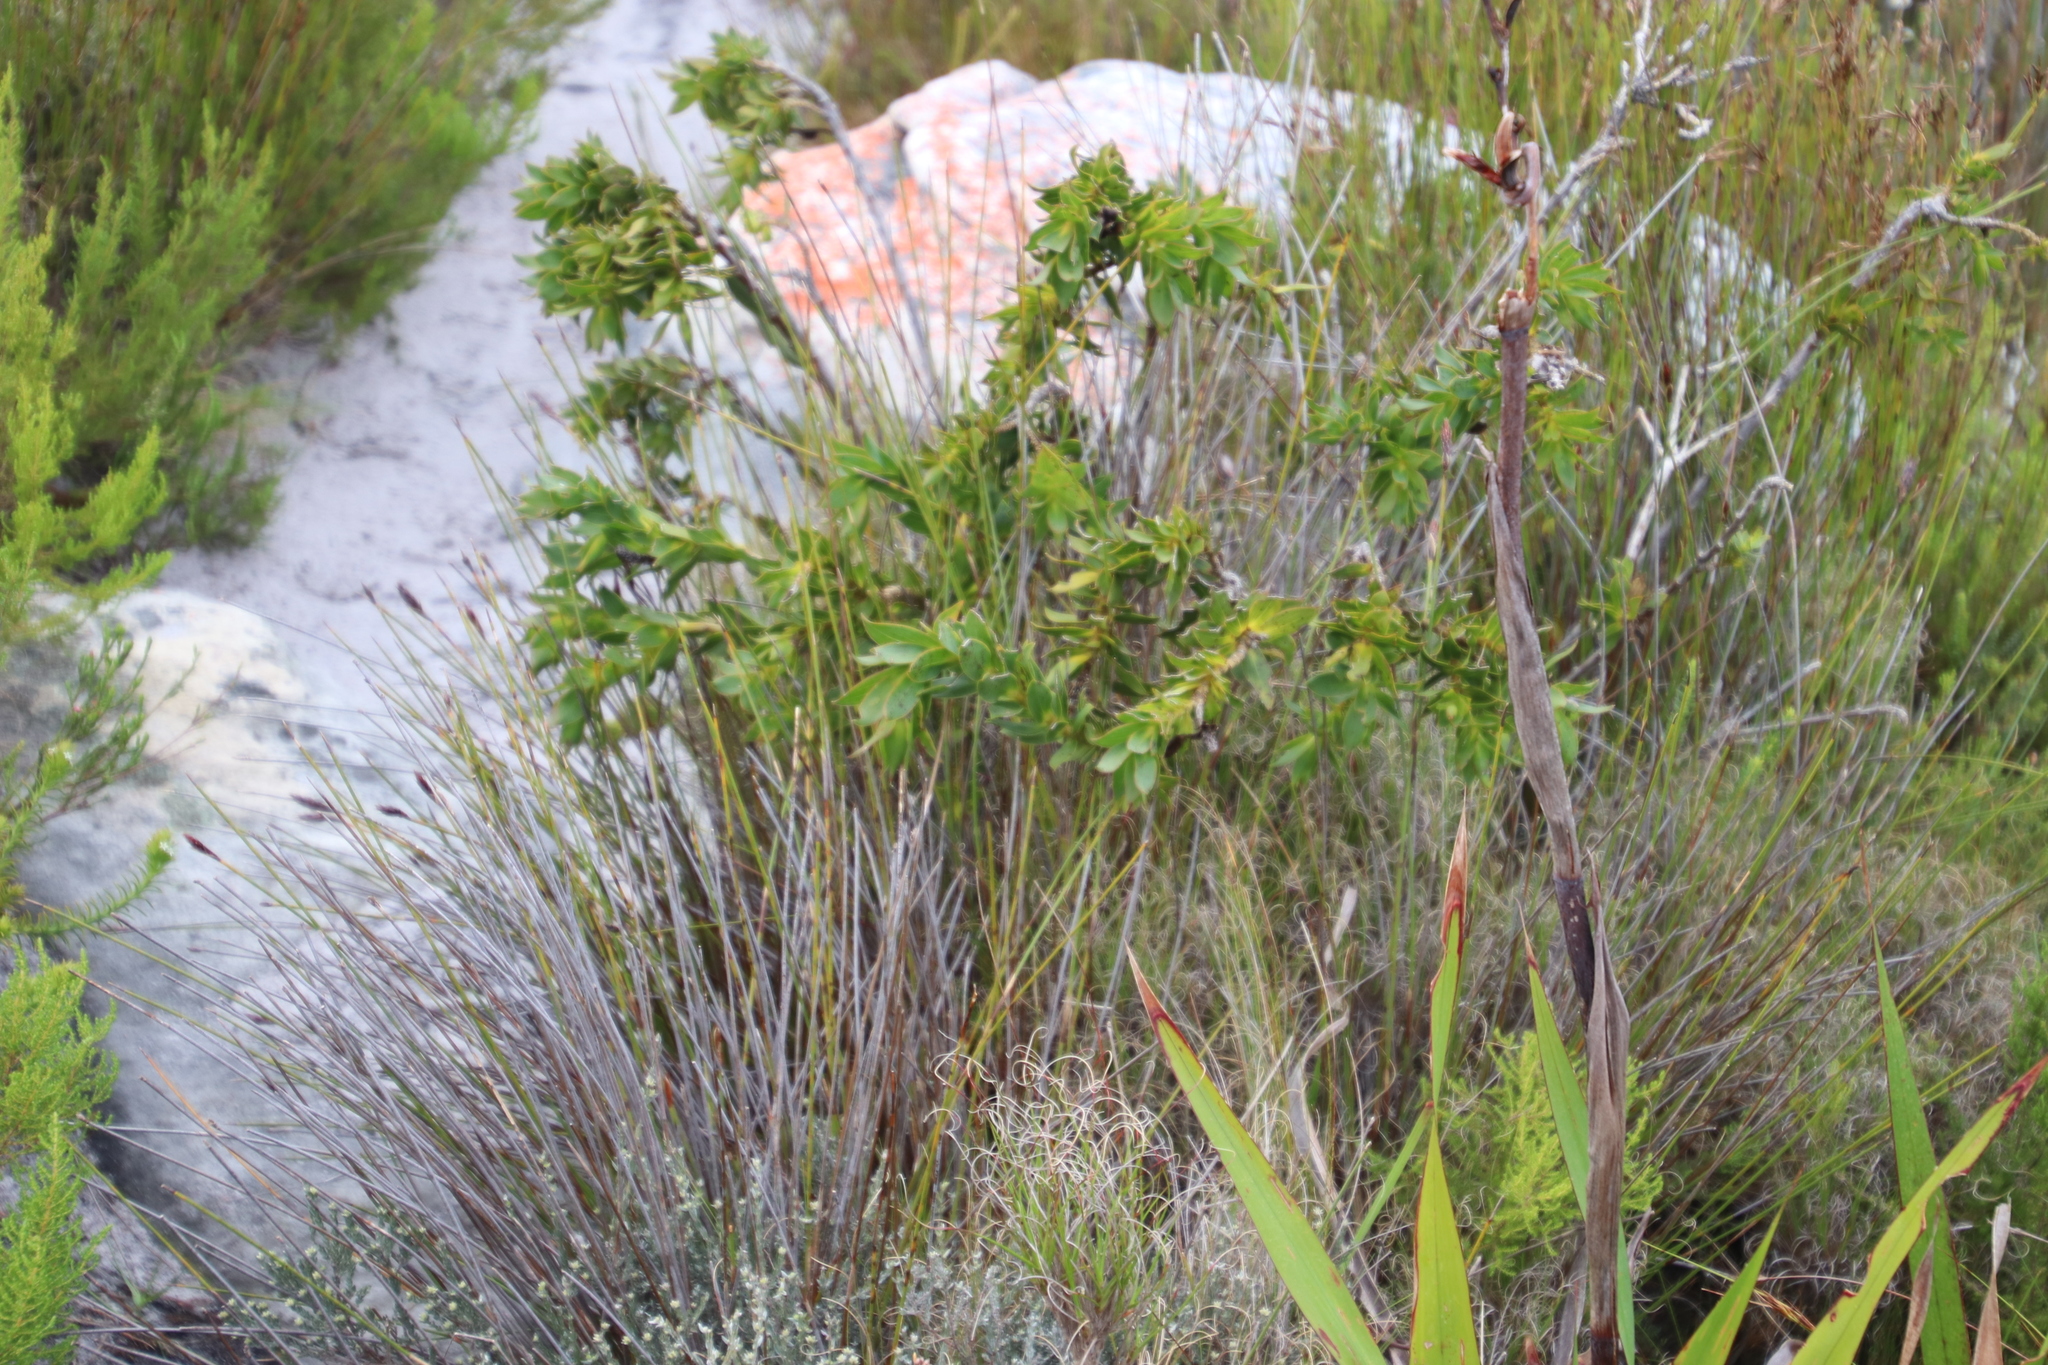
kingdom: Plantae
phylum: Tracheophyta
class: Magnoliopsida
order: Fabales
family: Fabaceae
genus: Liparia
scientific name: Liparia splendens
